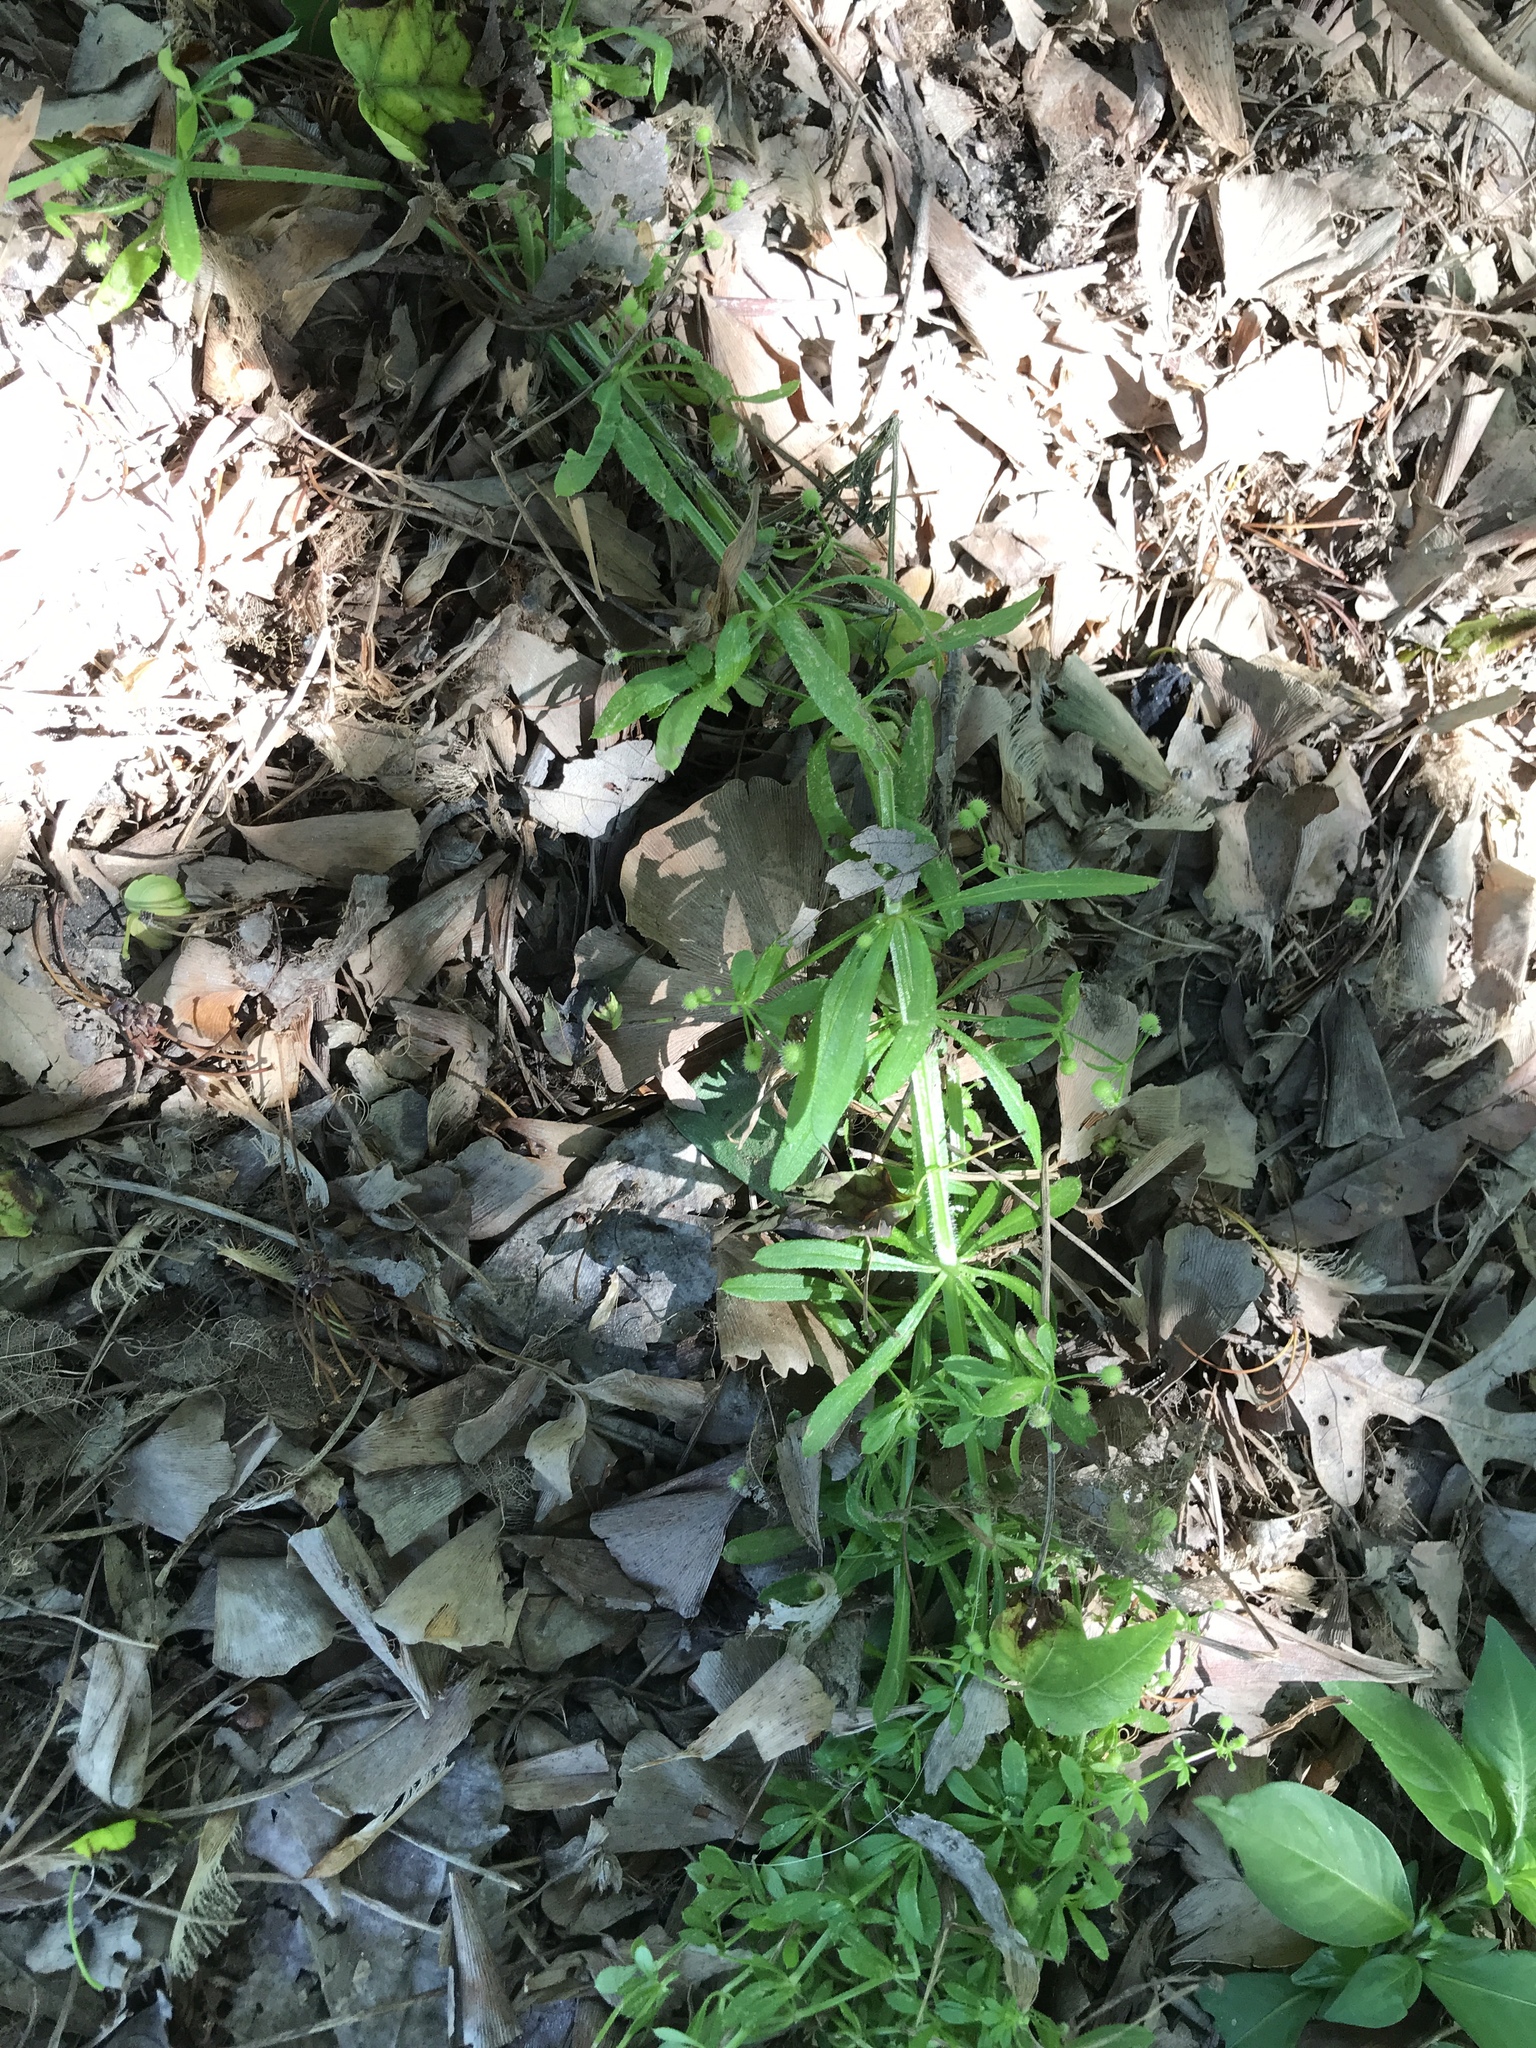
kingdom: Plantae
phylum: Tracheophyta
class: Magnoliopsida
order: Gentianales
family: Rubiaceae
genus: Galium
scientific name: Galium aparine
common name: Cleavers
